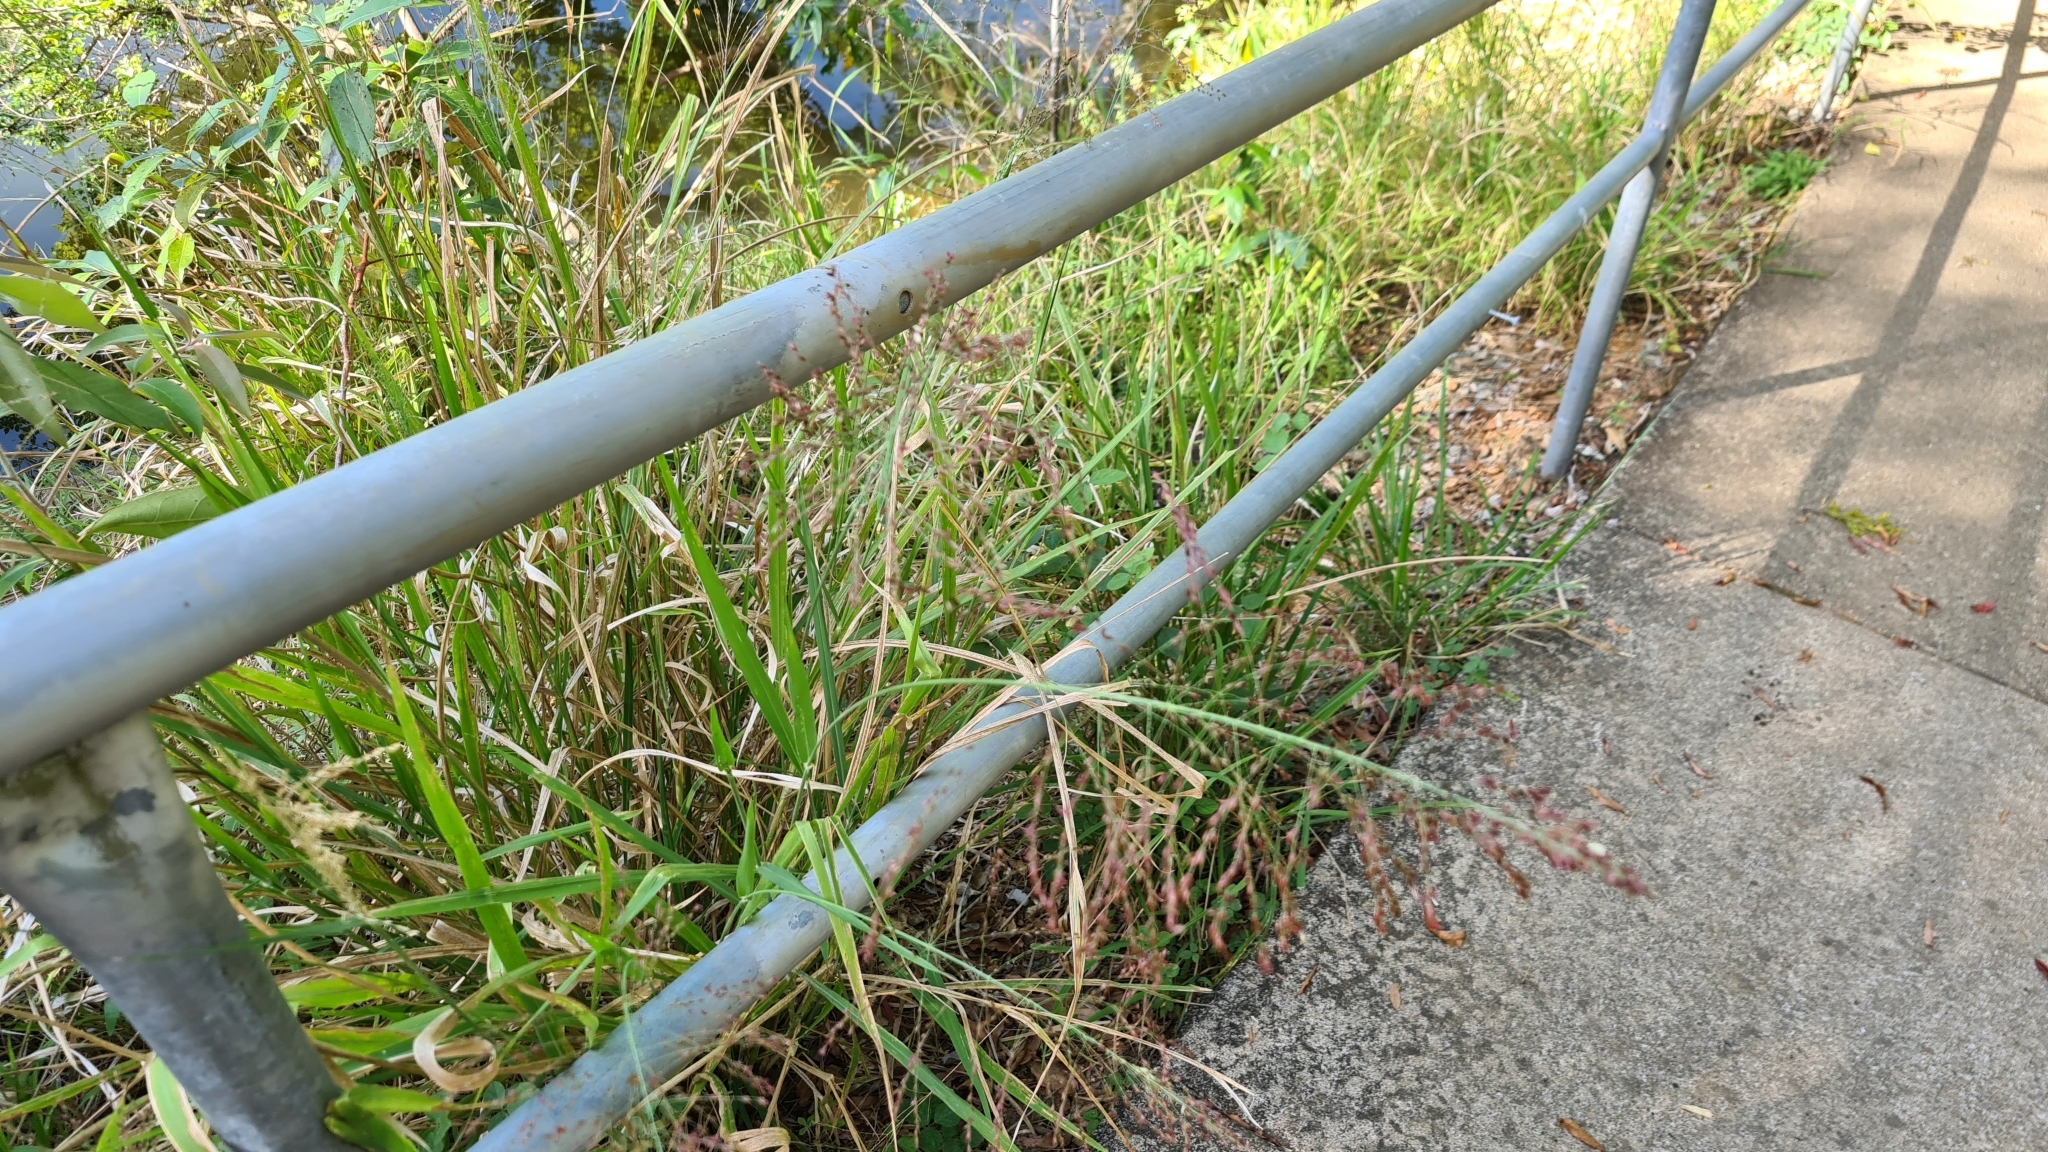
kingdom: Plantae
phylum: Tracheophyta
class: Liliopsida
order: Poales
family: Poaceae
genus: Megathyrsus
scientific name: Megathyrsus maximus
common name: Guineagrass
